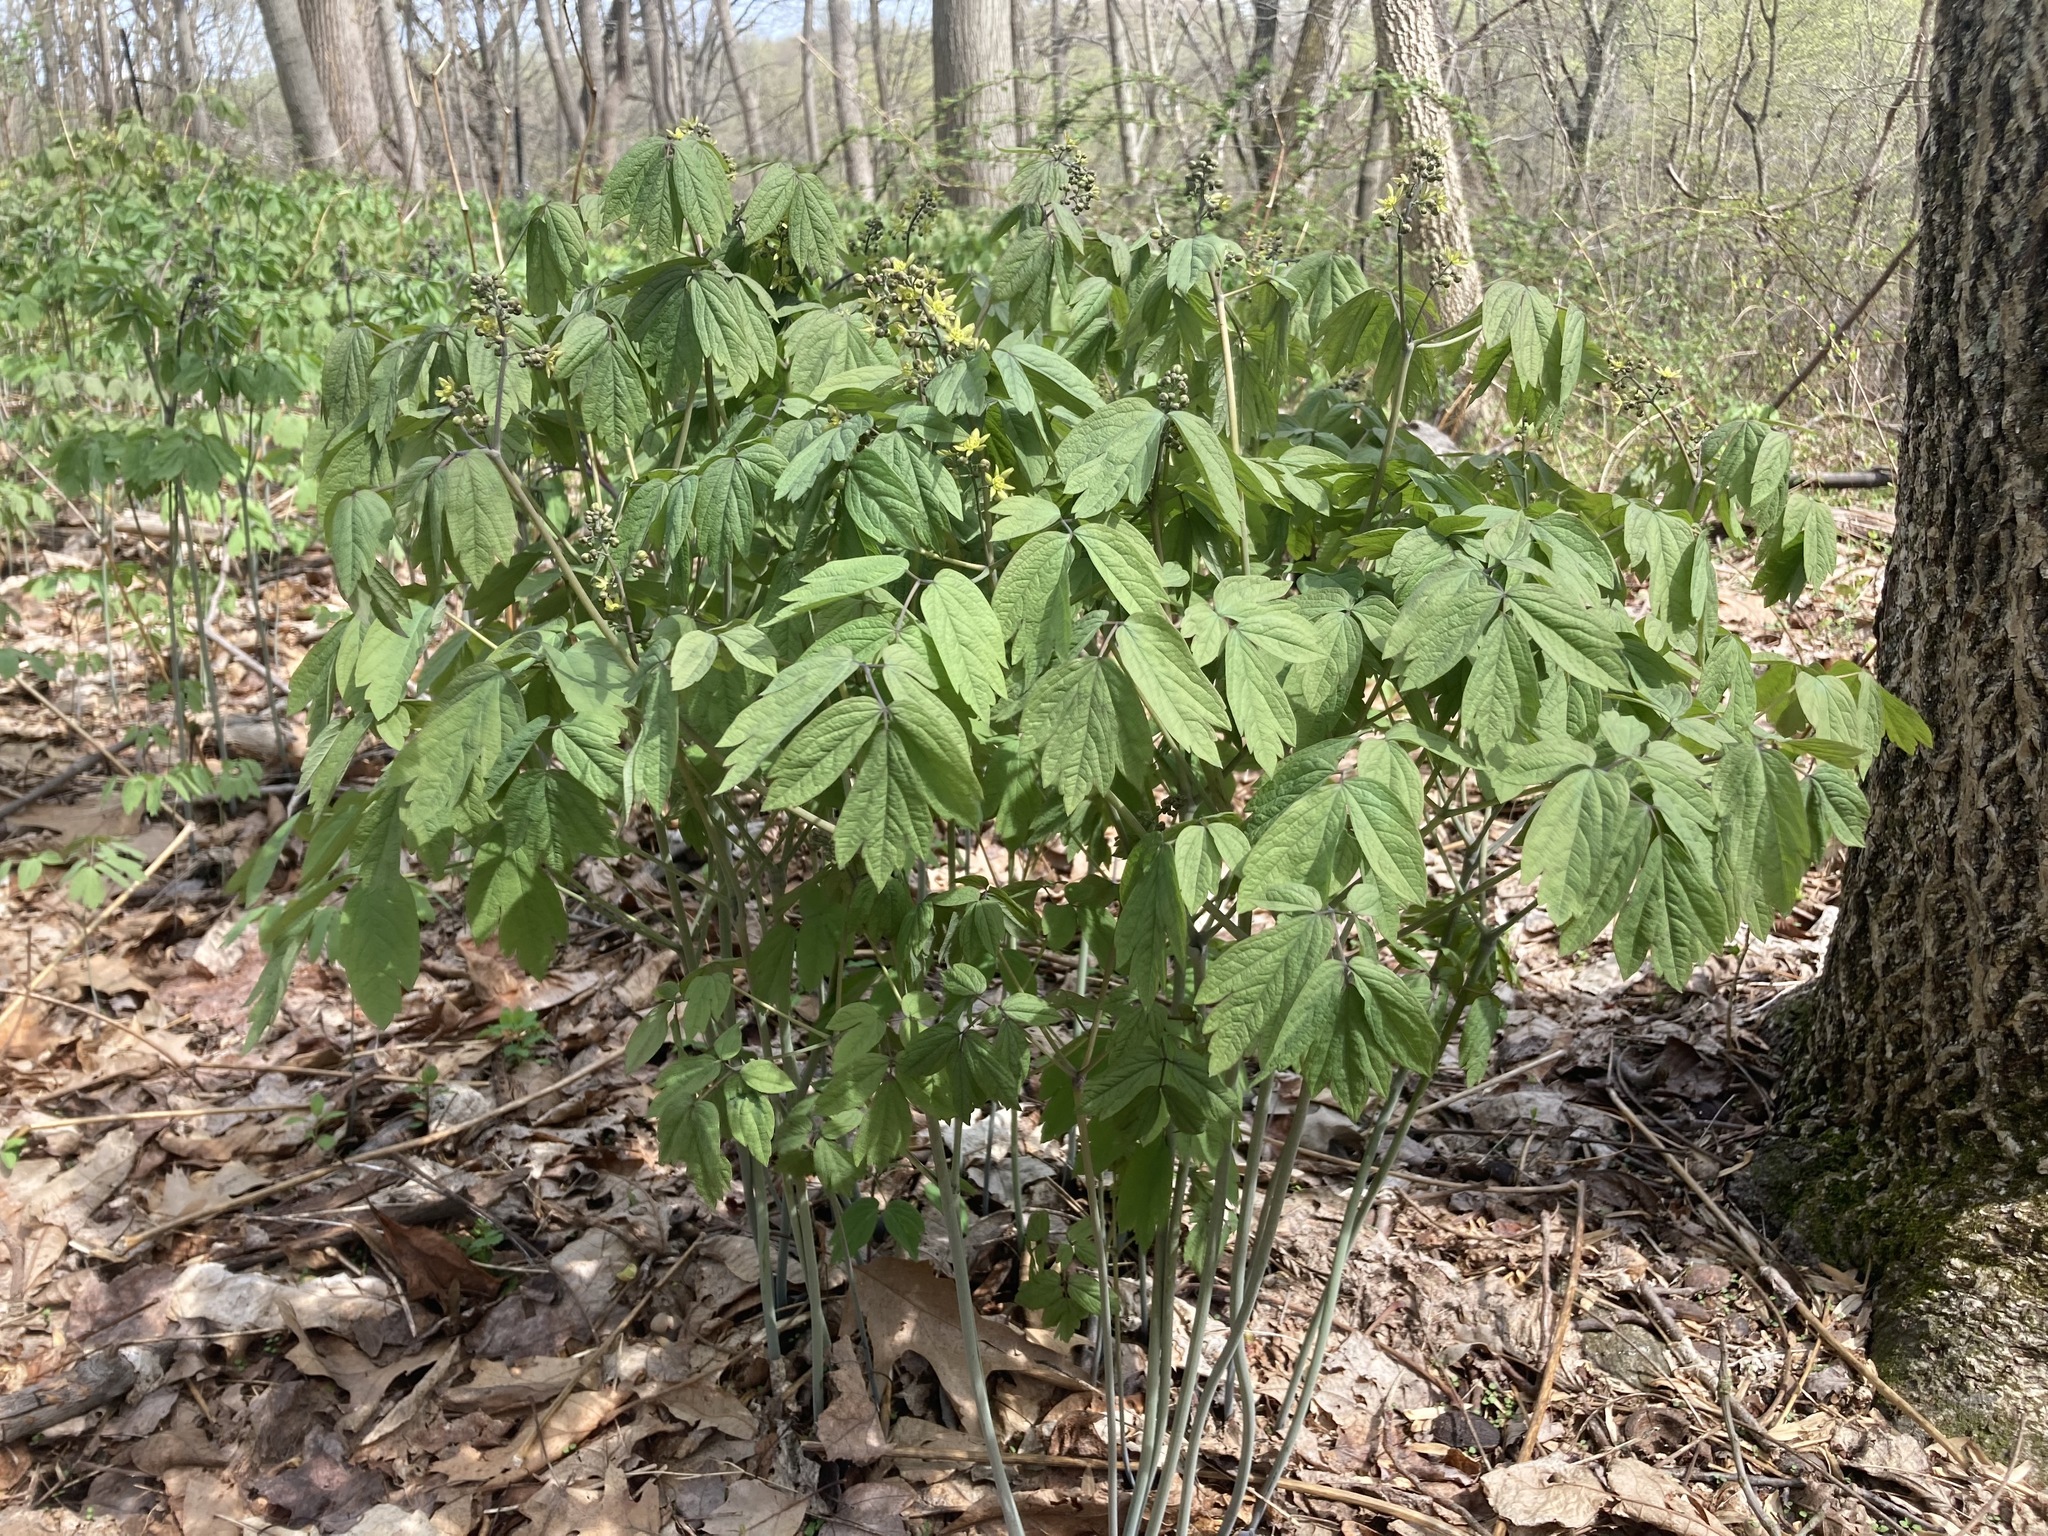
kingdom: Plantae
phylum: Tracheophyta
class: Magnoliopsida
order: Ranunculales
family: Berberidaceae
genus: Caulophyllum
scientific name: Caulophyllum thalictroides
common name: Blue cohosh
